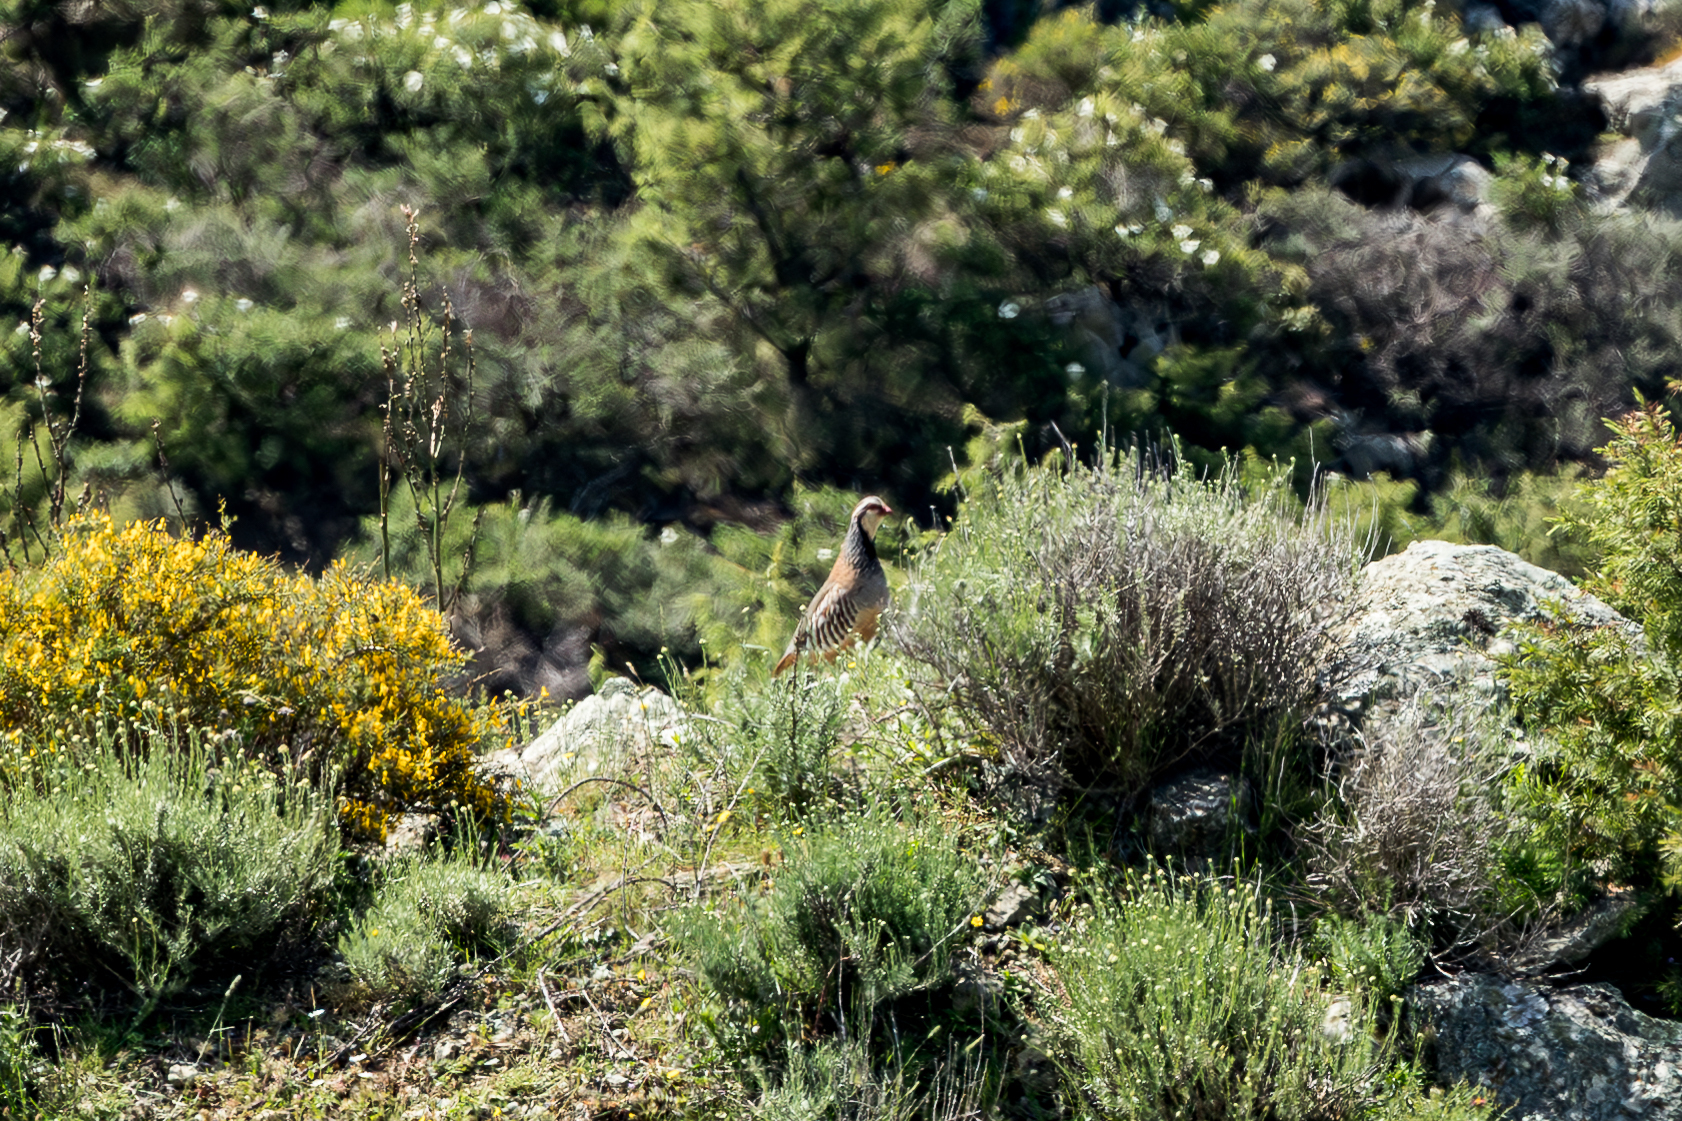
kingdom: Animalia
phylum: Chordata
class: Aves
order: Galliformes
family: Phasianidae
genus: Alectoris
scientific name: Alectoris rufa
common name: Red-legged partridge
